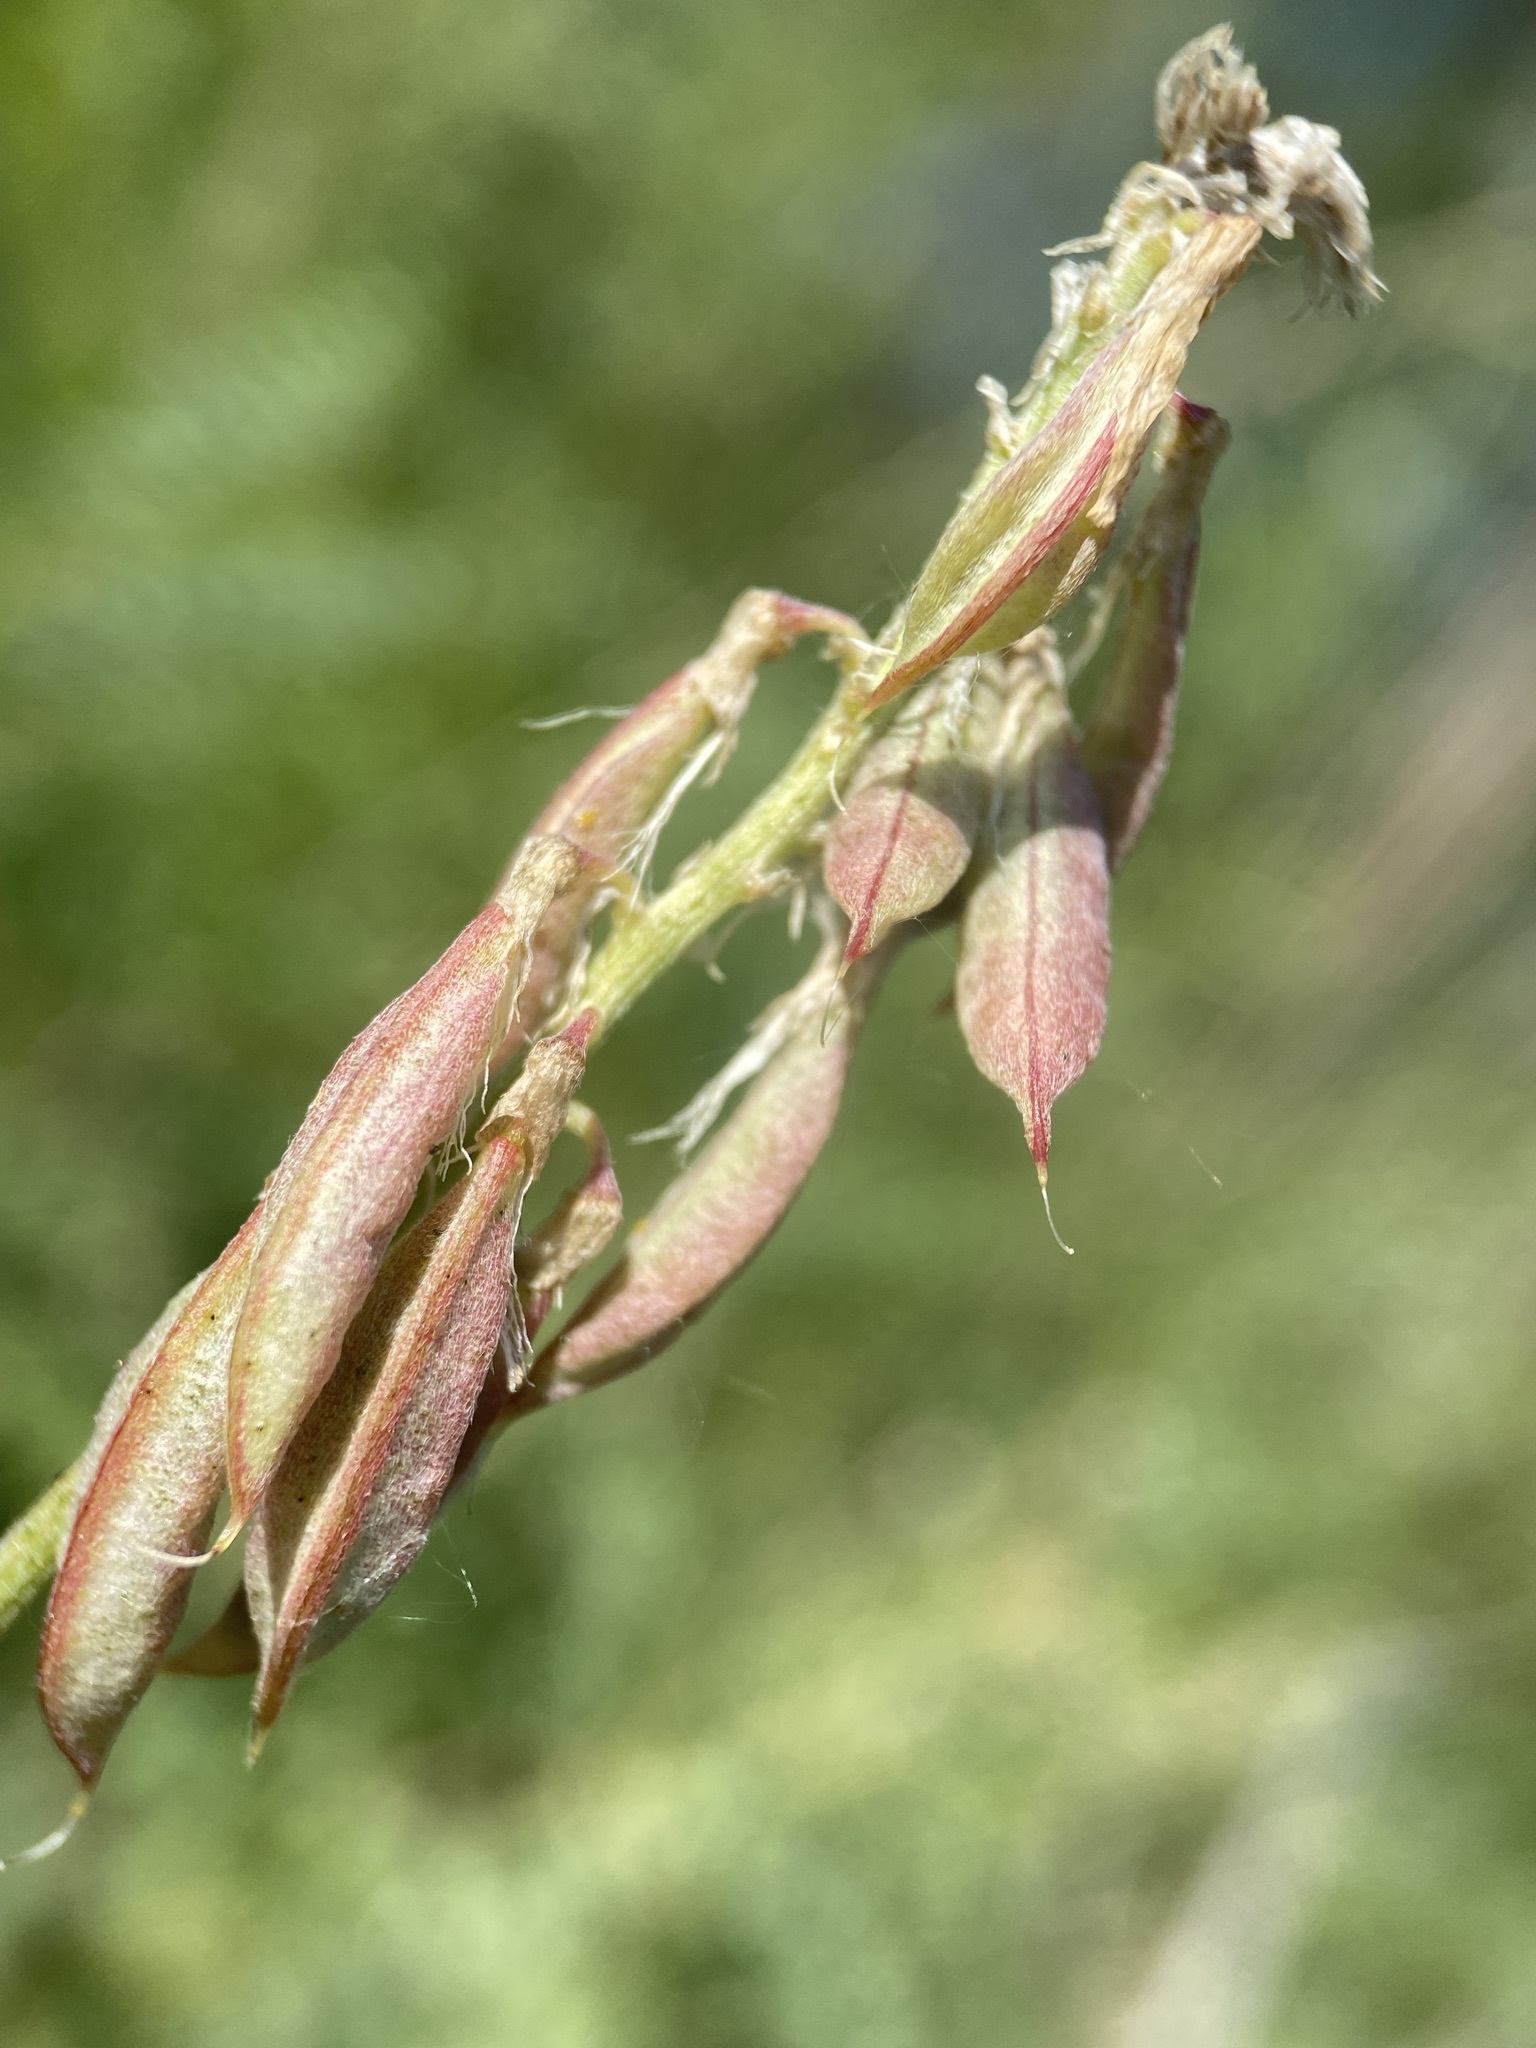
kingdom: Plantae
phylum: Tracheophyta
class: Magnoliopsida
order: Fabales
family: Fabaceae
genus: Astragalus
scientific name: Astragalus bisulcatus
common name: Two-groove milk-vetch
